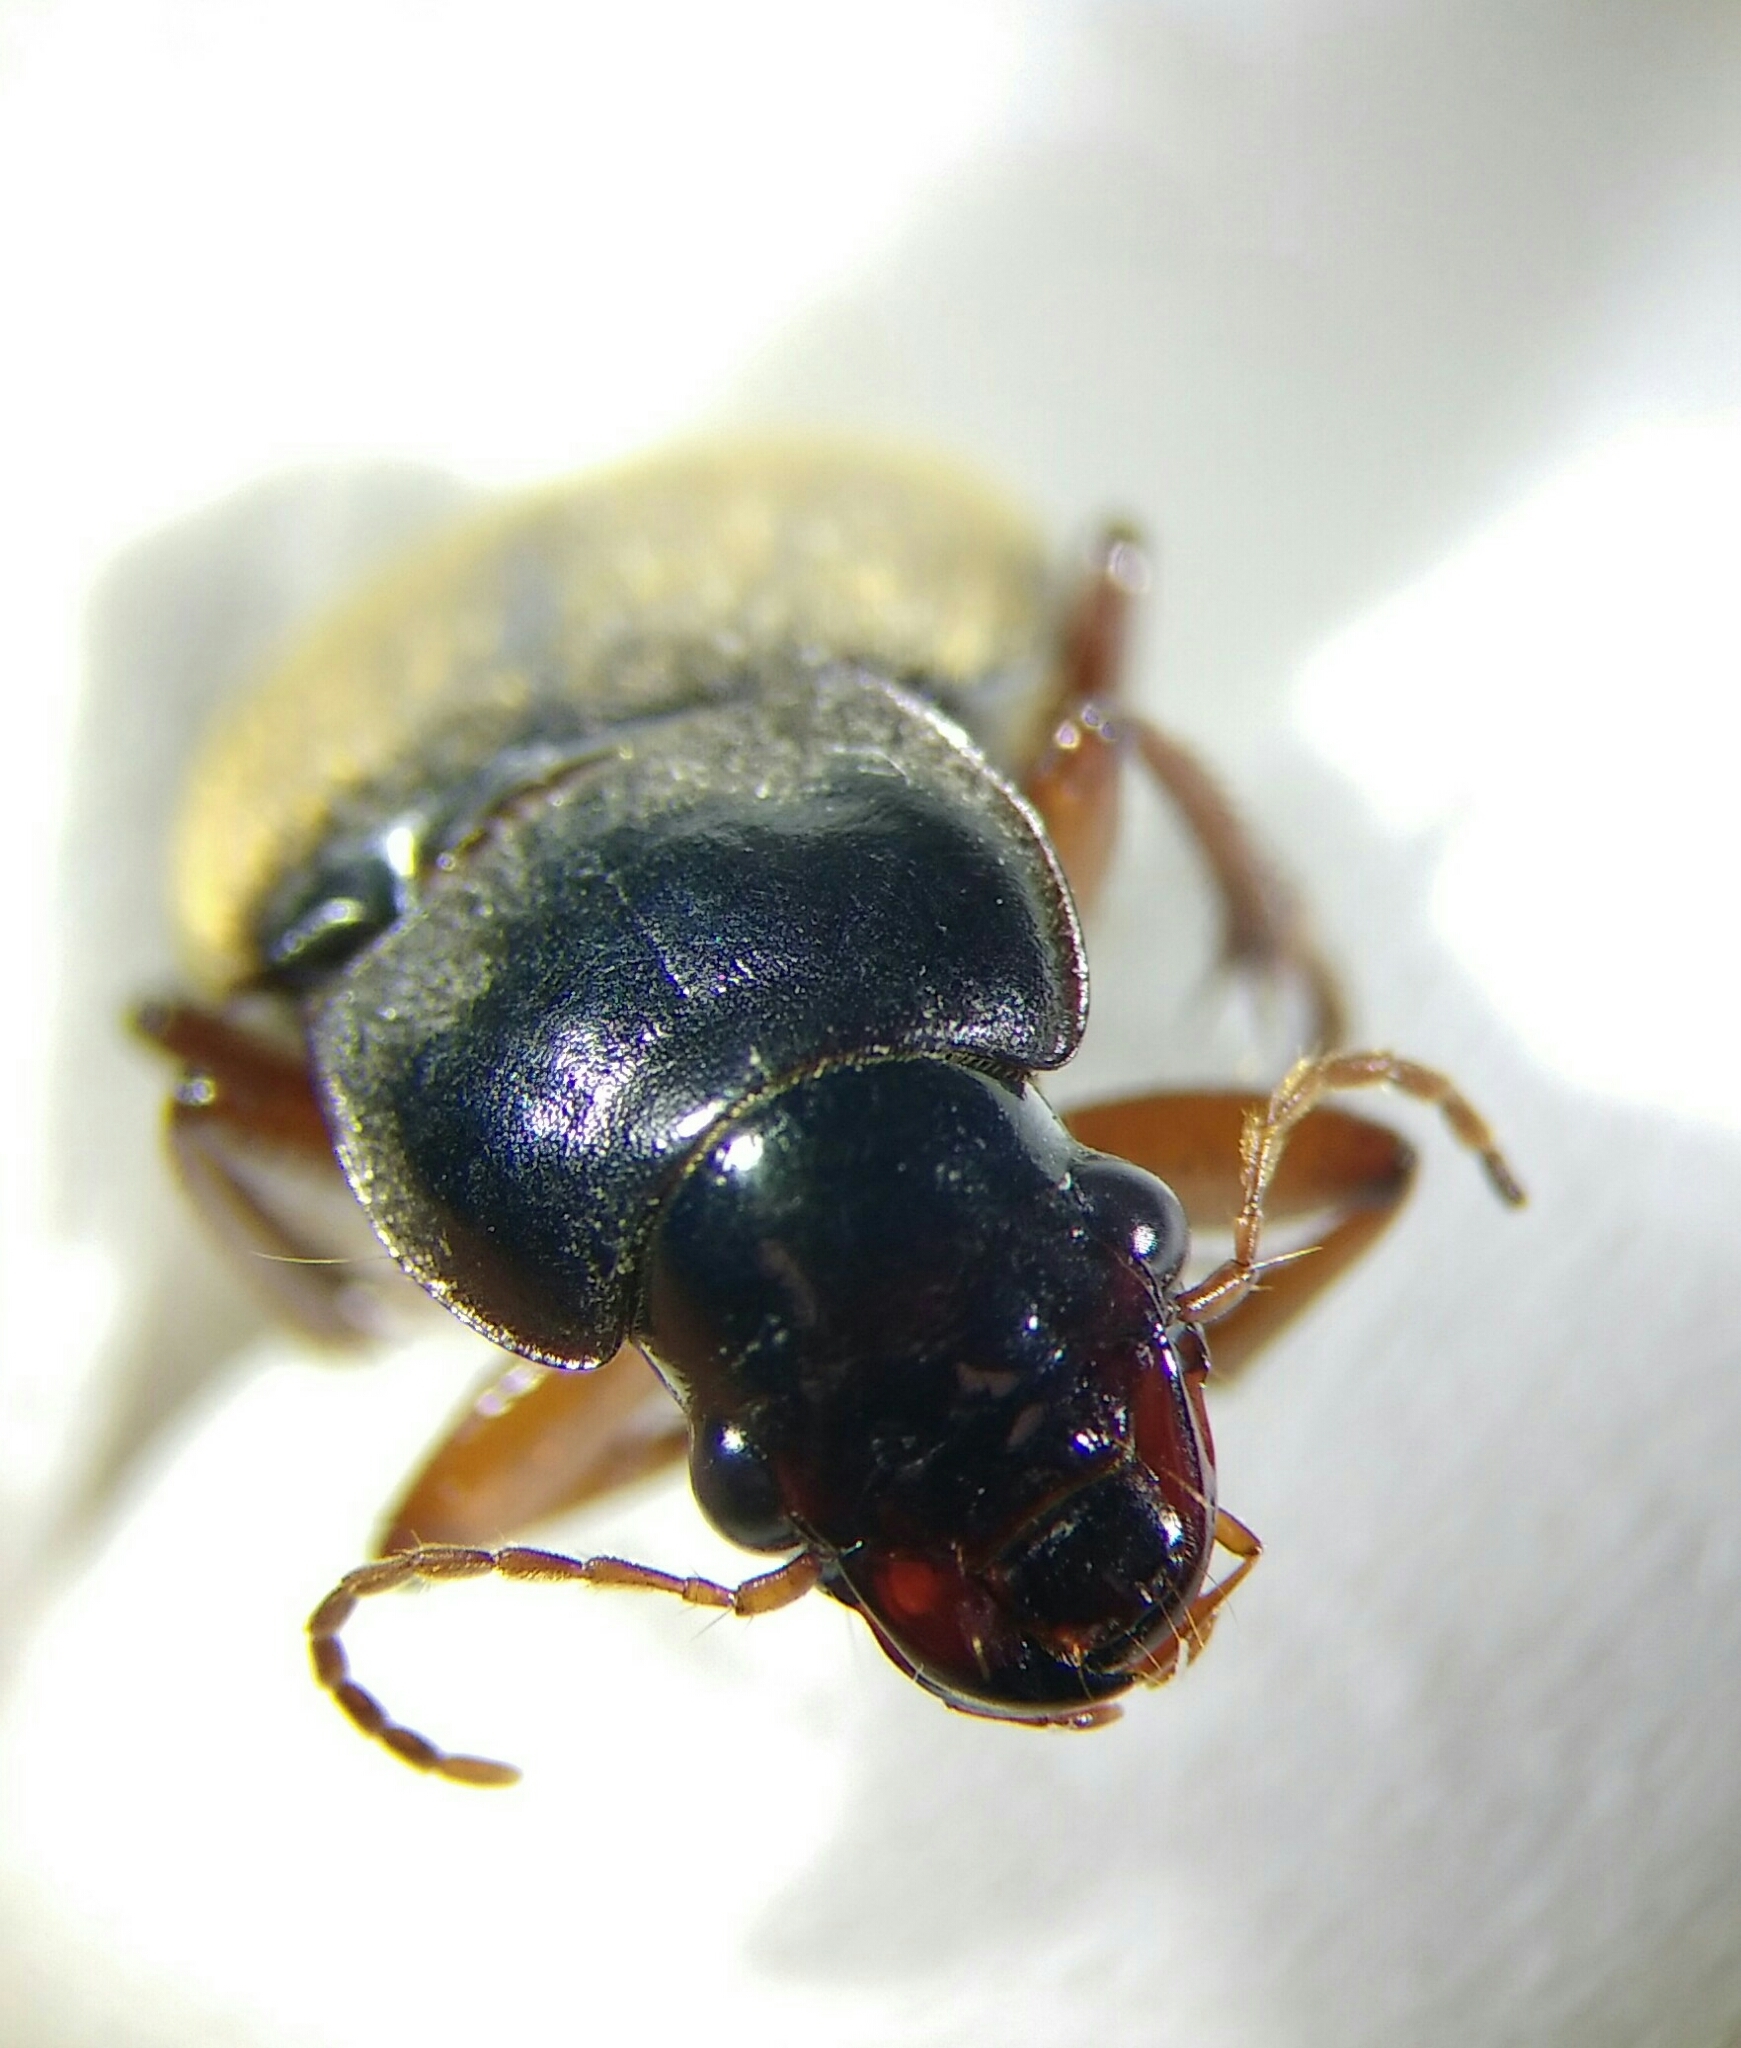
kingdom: Animalia
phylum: Arthropoda
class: Insecta
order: Coleoptera
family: Carabidae
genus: Harpalus
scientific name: Harpalus rufipes
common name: Strawberry harp ground beetle
